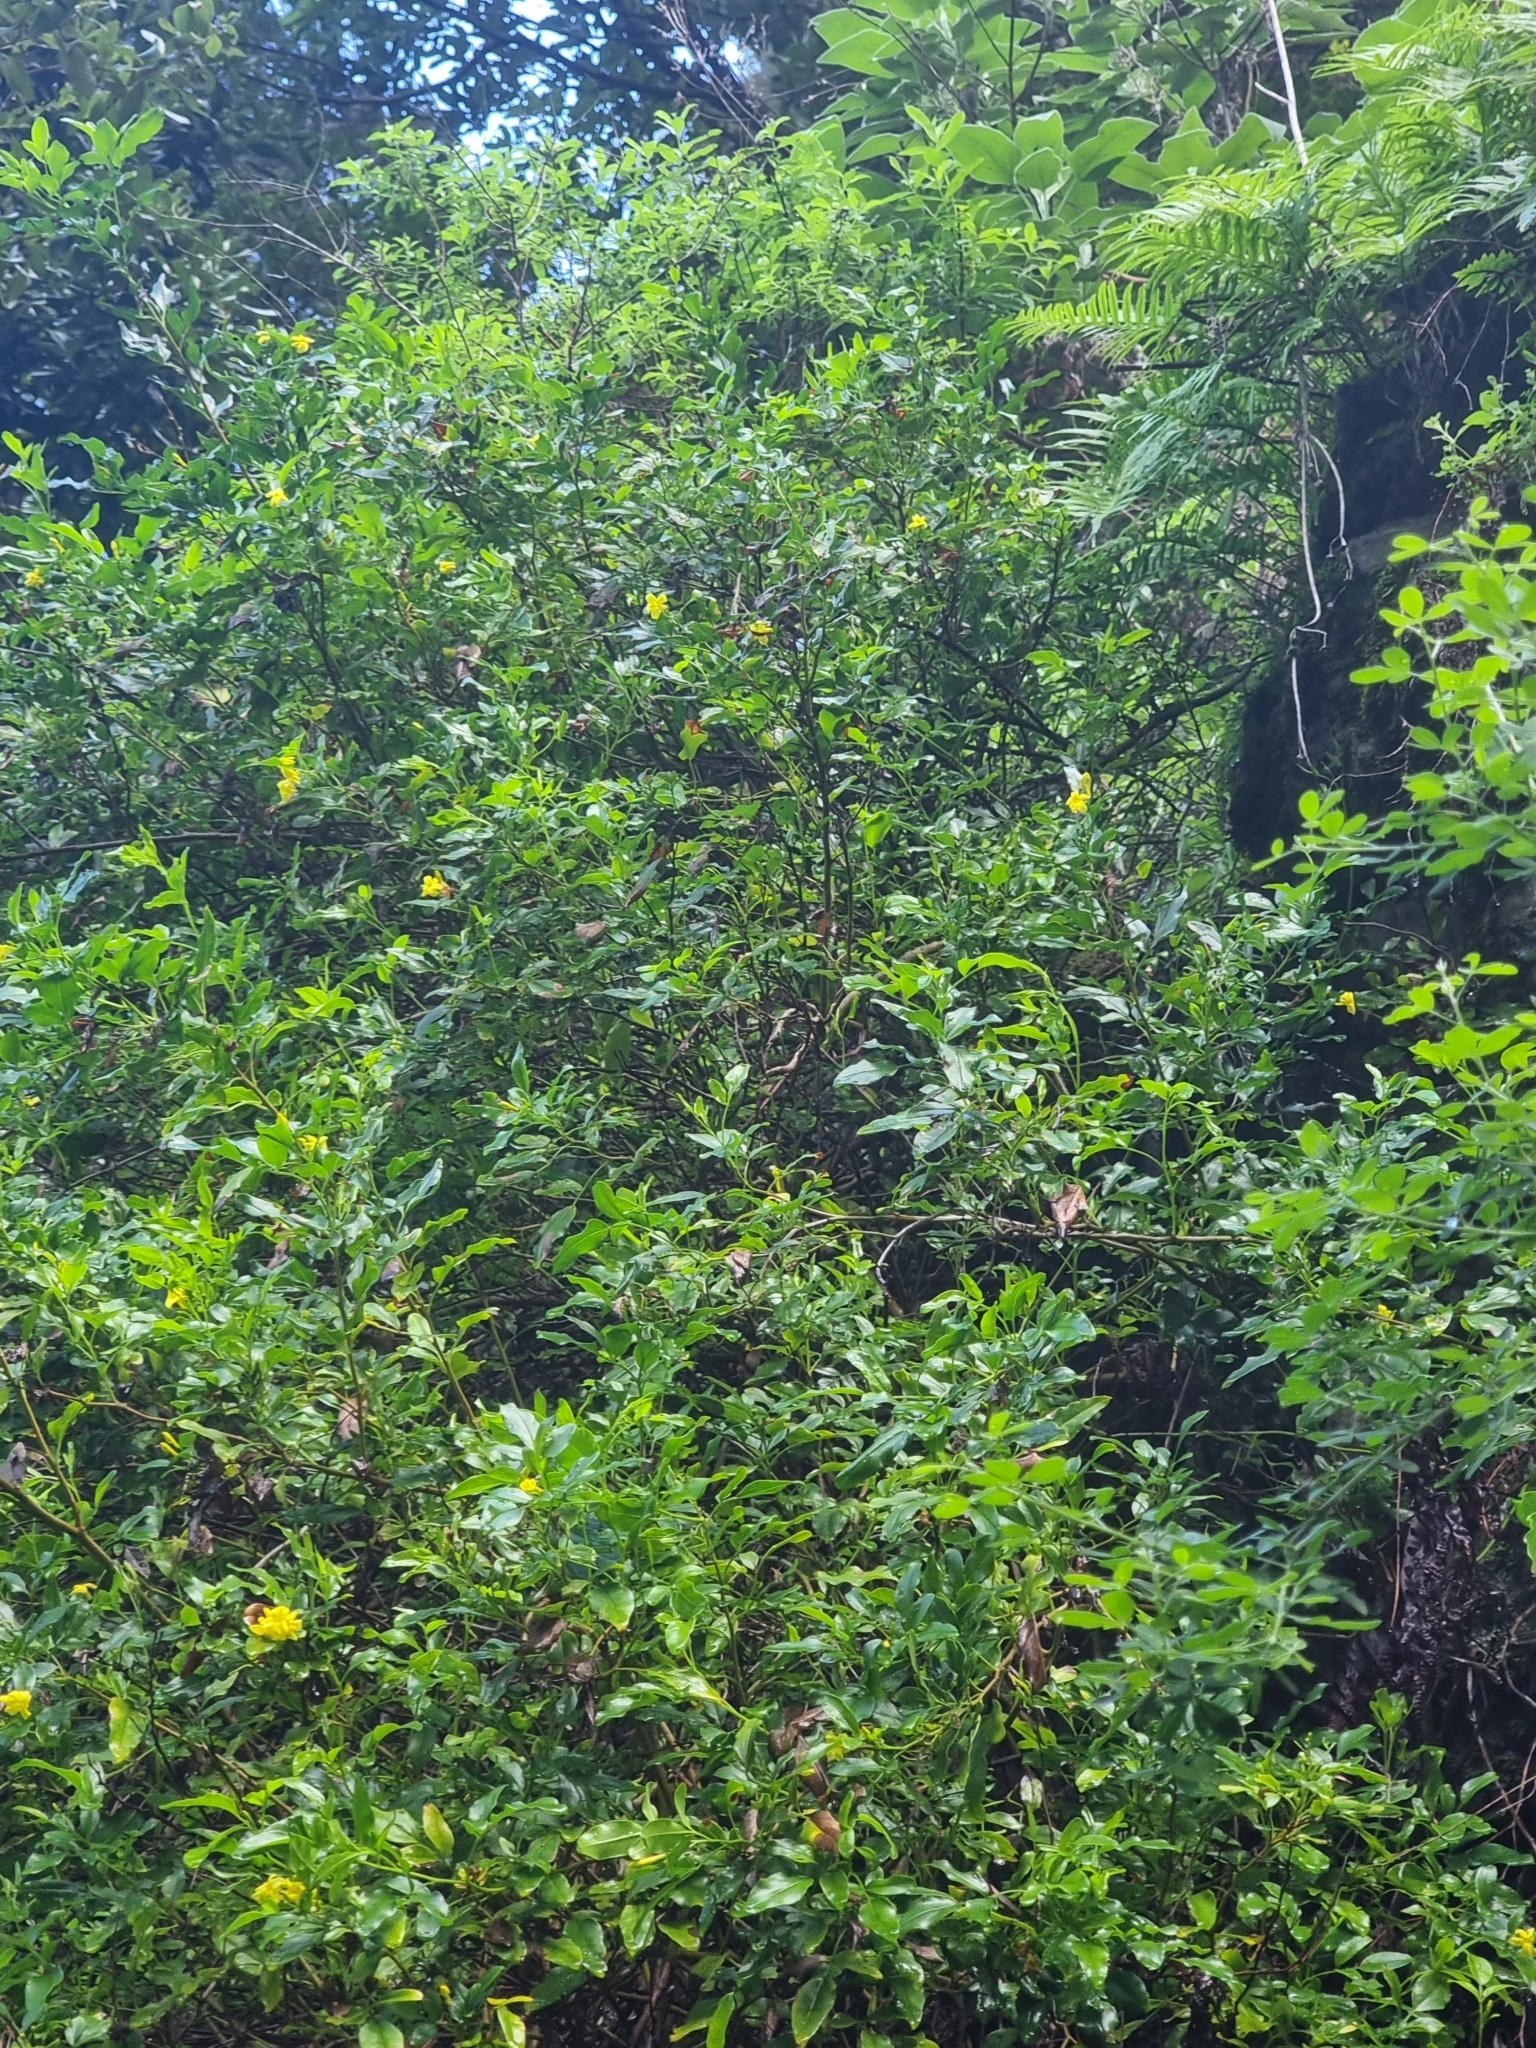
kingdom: Plantae
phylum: Tracheophyta
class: Magnoliopsida
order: Lamiales
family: Oleaceae
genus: Chrysojasminum
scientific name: Chrysojasminum odoratissimum
